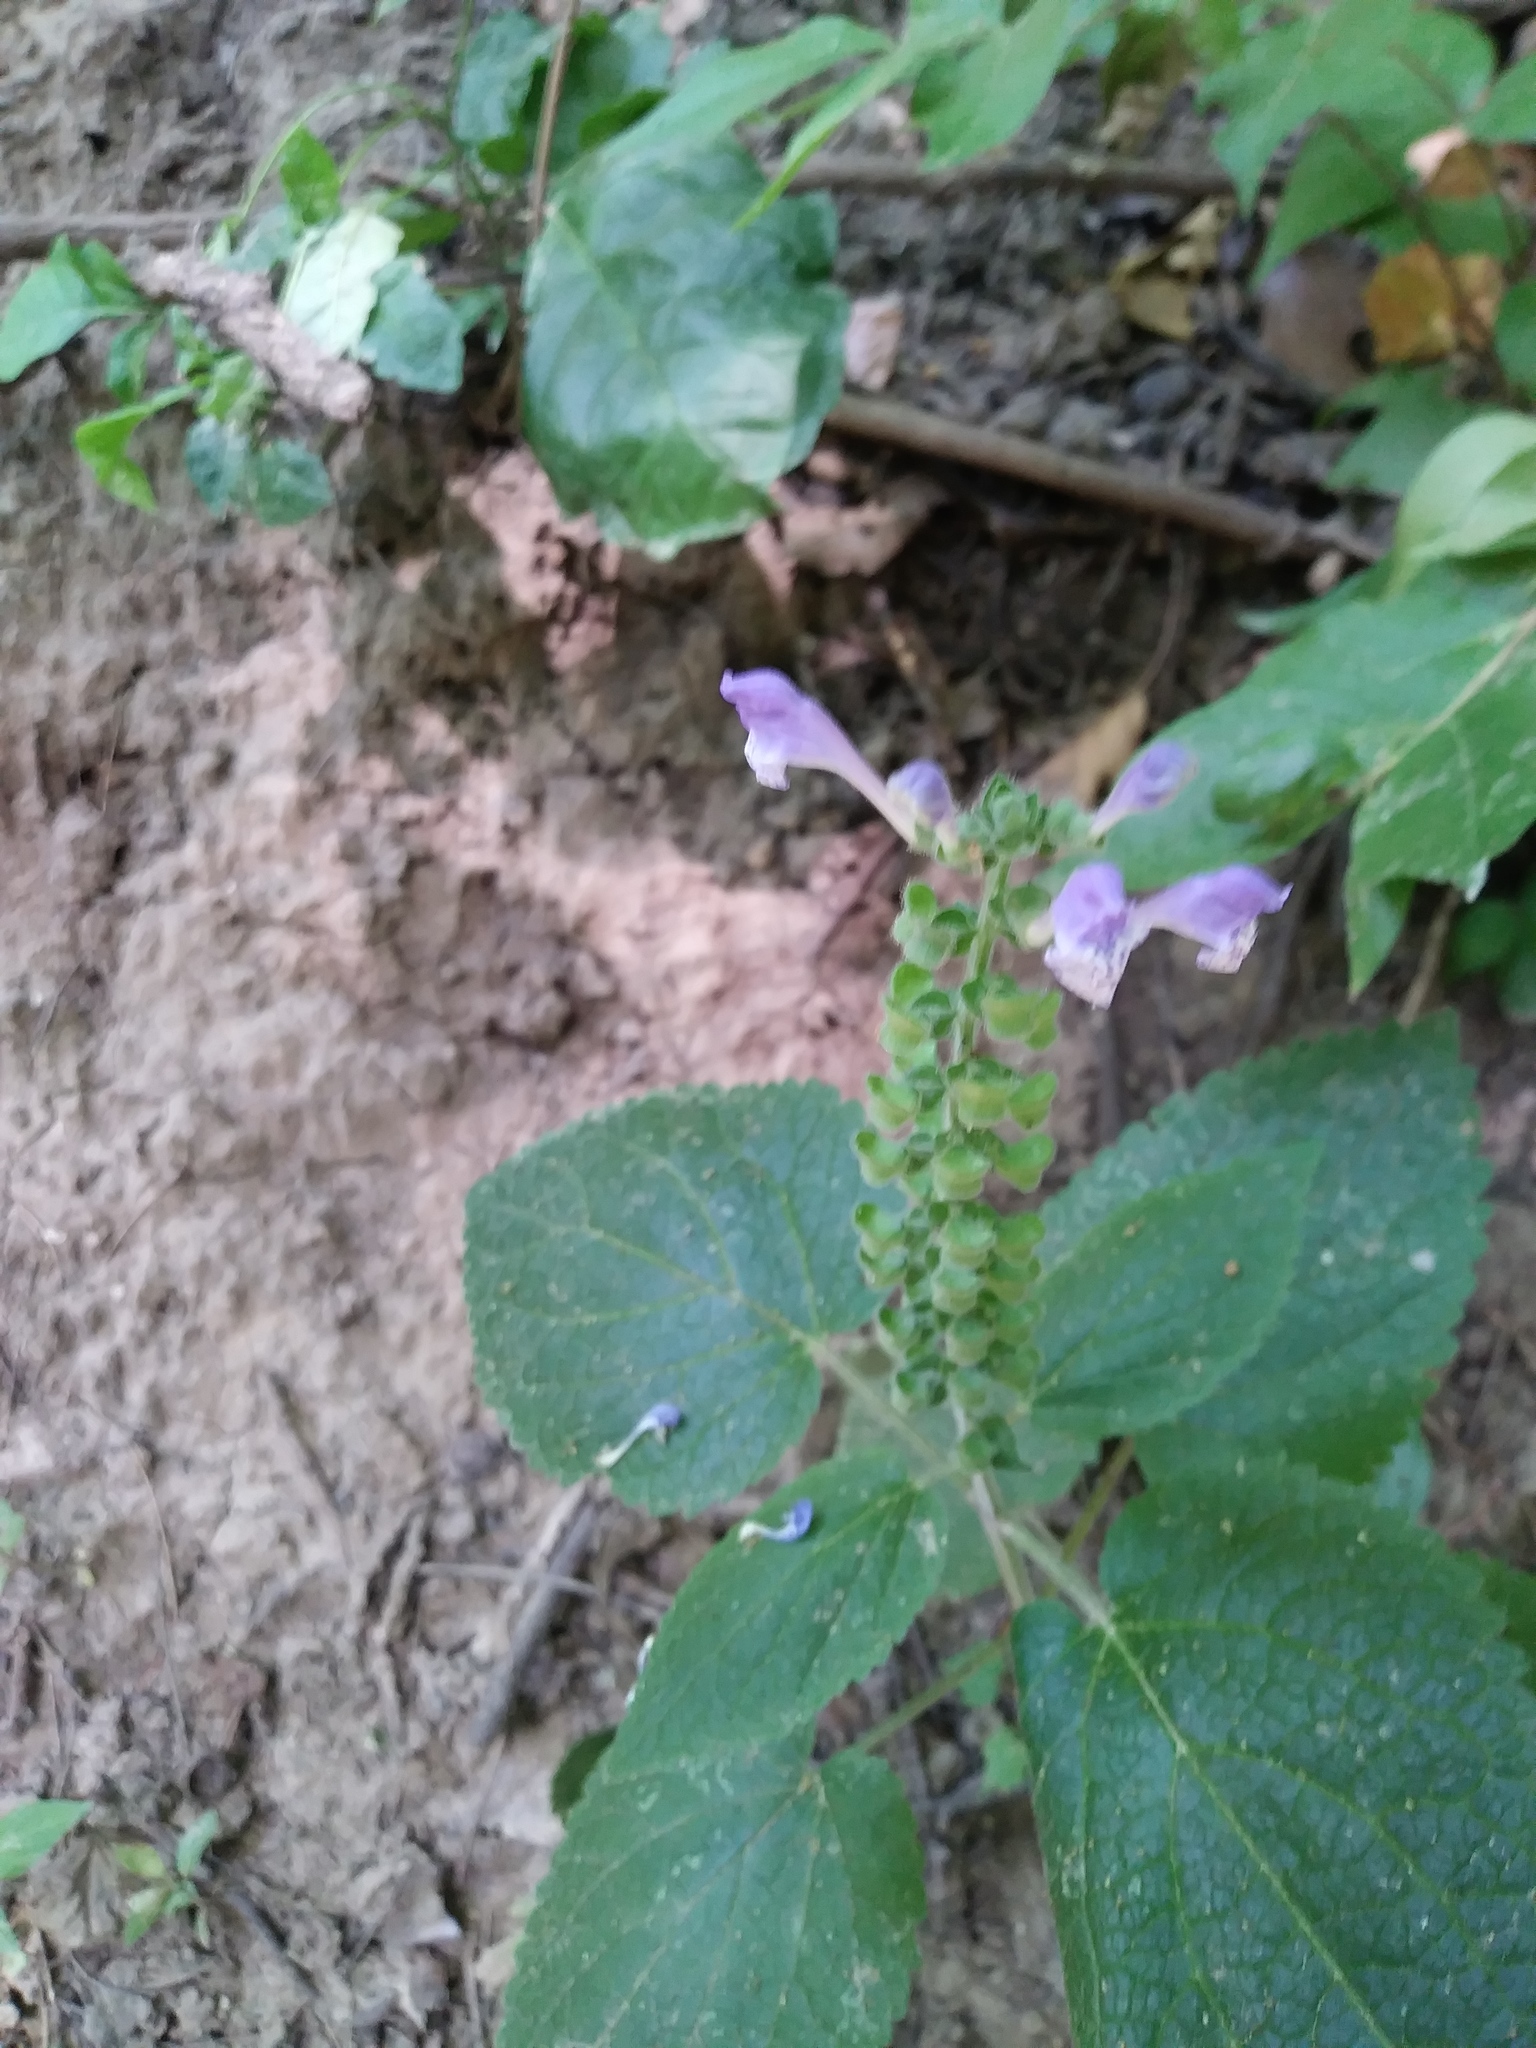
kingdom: Plantae
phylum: Tracheophyta
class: Magnoliopsida
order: Lamiales
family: Lamiaceae
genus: Scutellaria
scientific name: Scutellaria ovata
